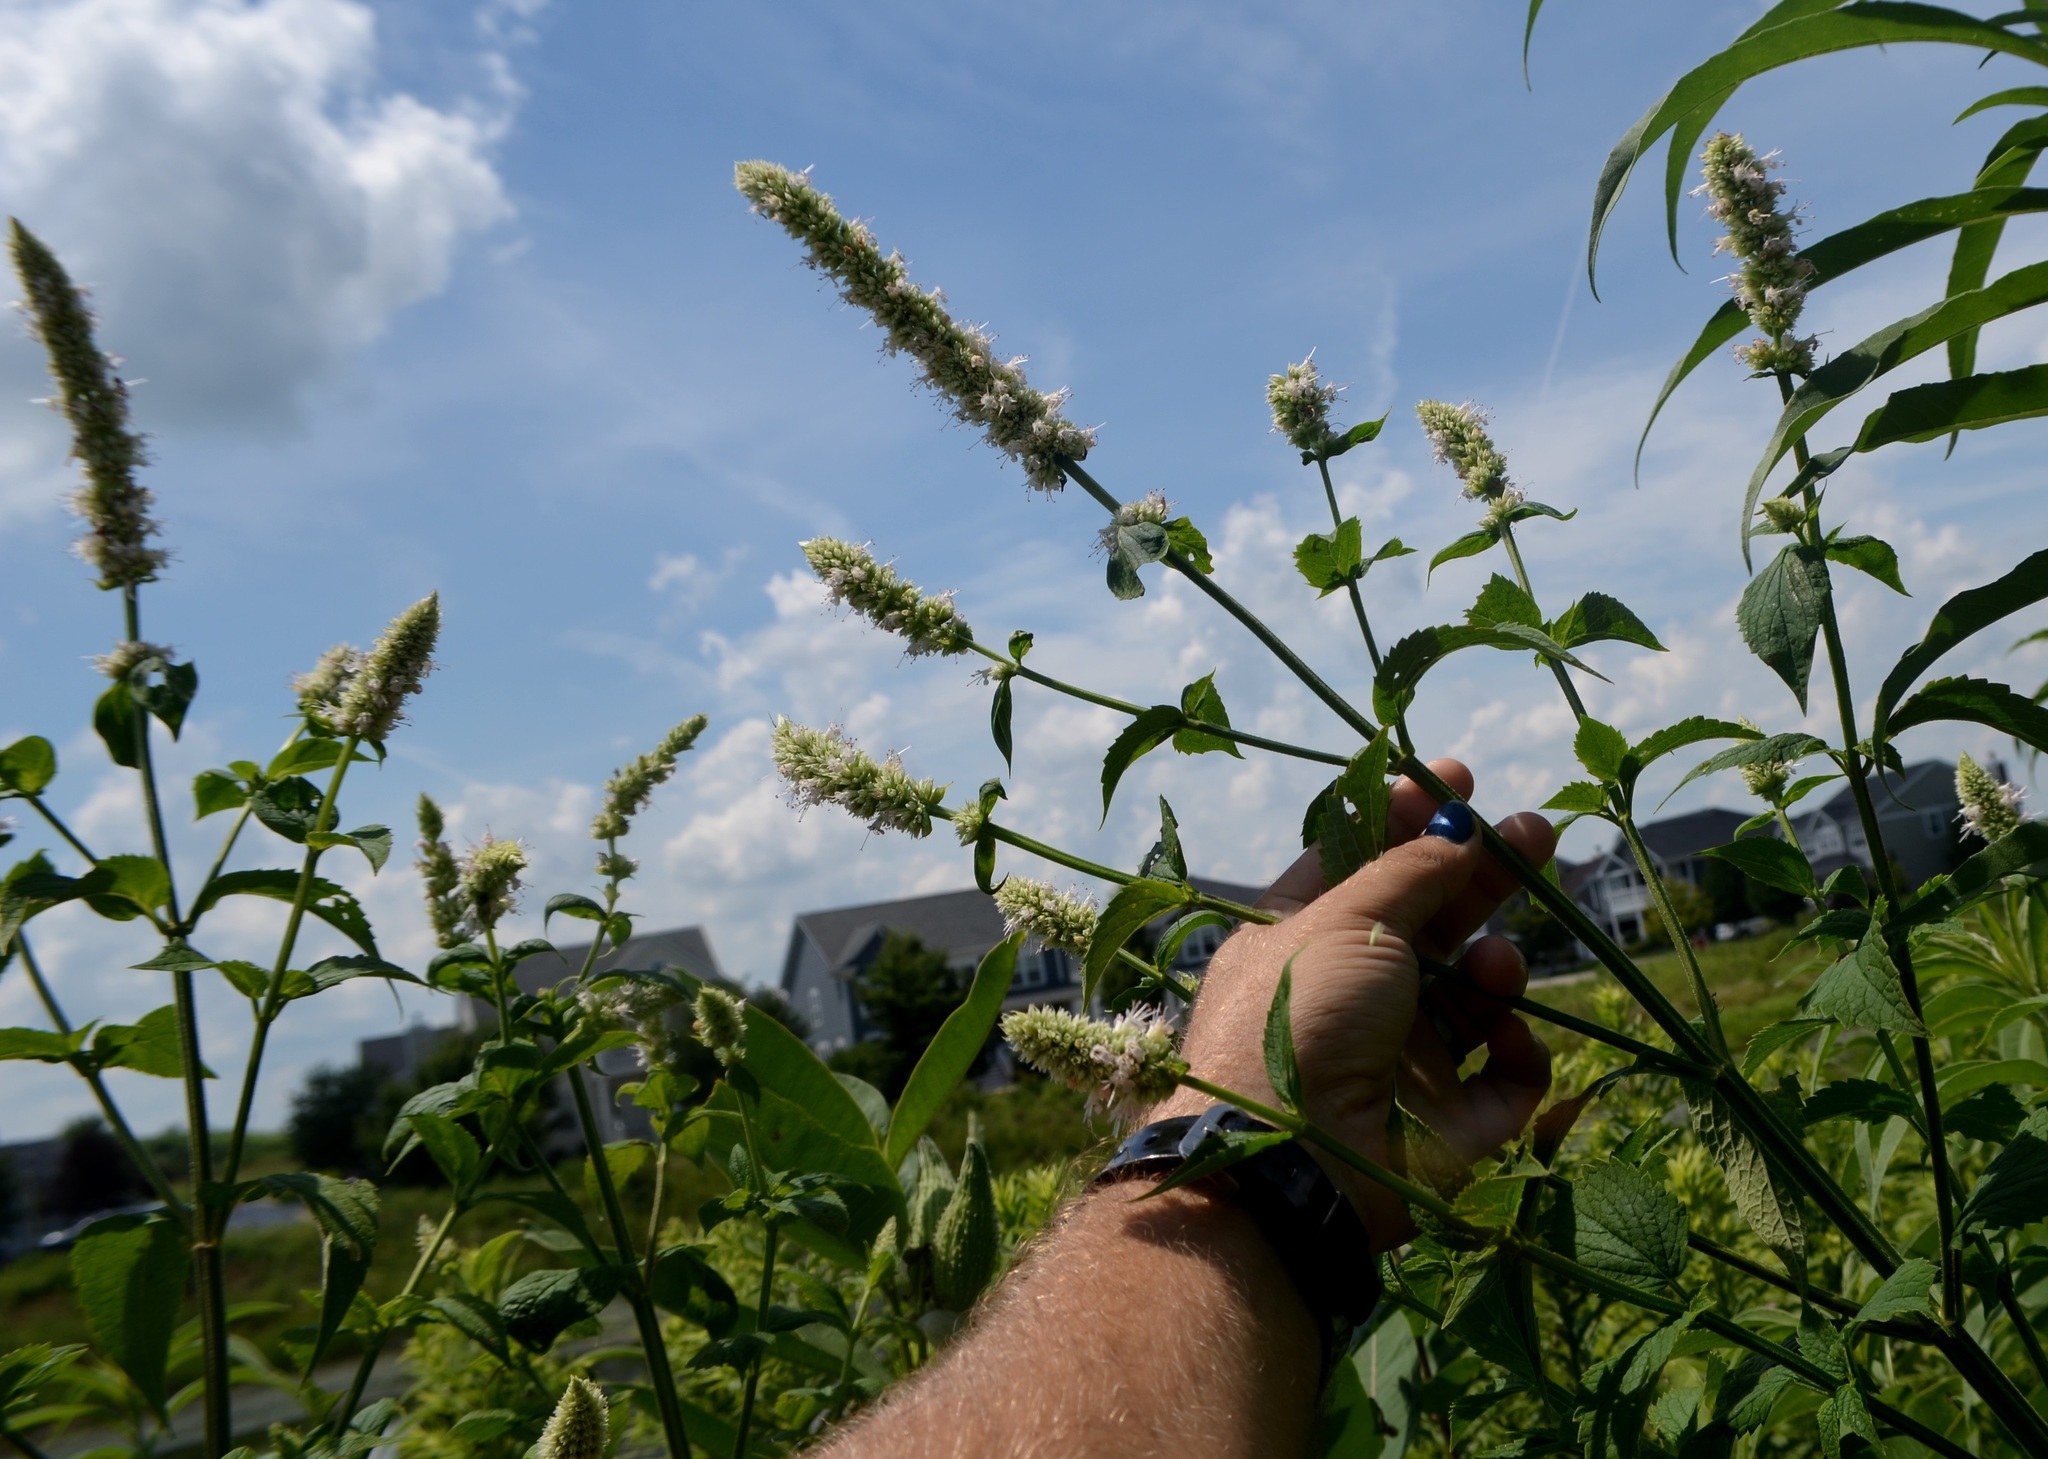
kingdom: Plantae
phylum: Tracheophyta
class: Magnoliopsida
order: Lamiales
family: Lamiaceae
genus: Agastache
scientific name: Agastache scrophulariifolia
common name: Figwort giant hyssop
